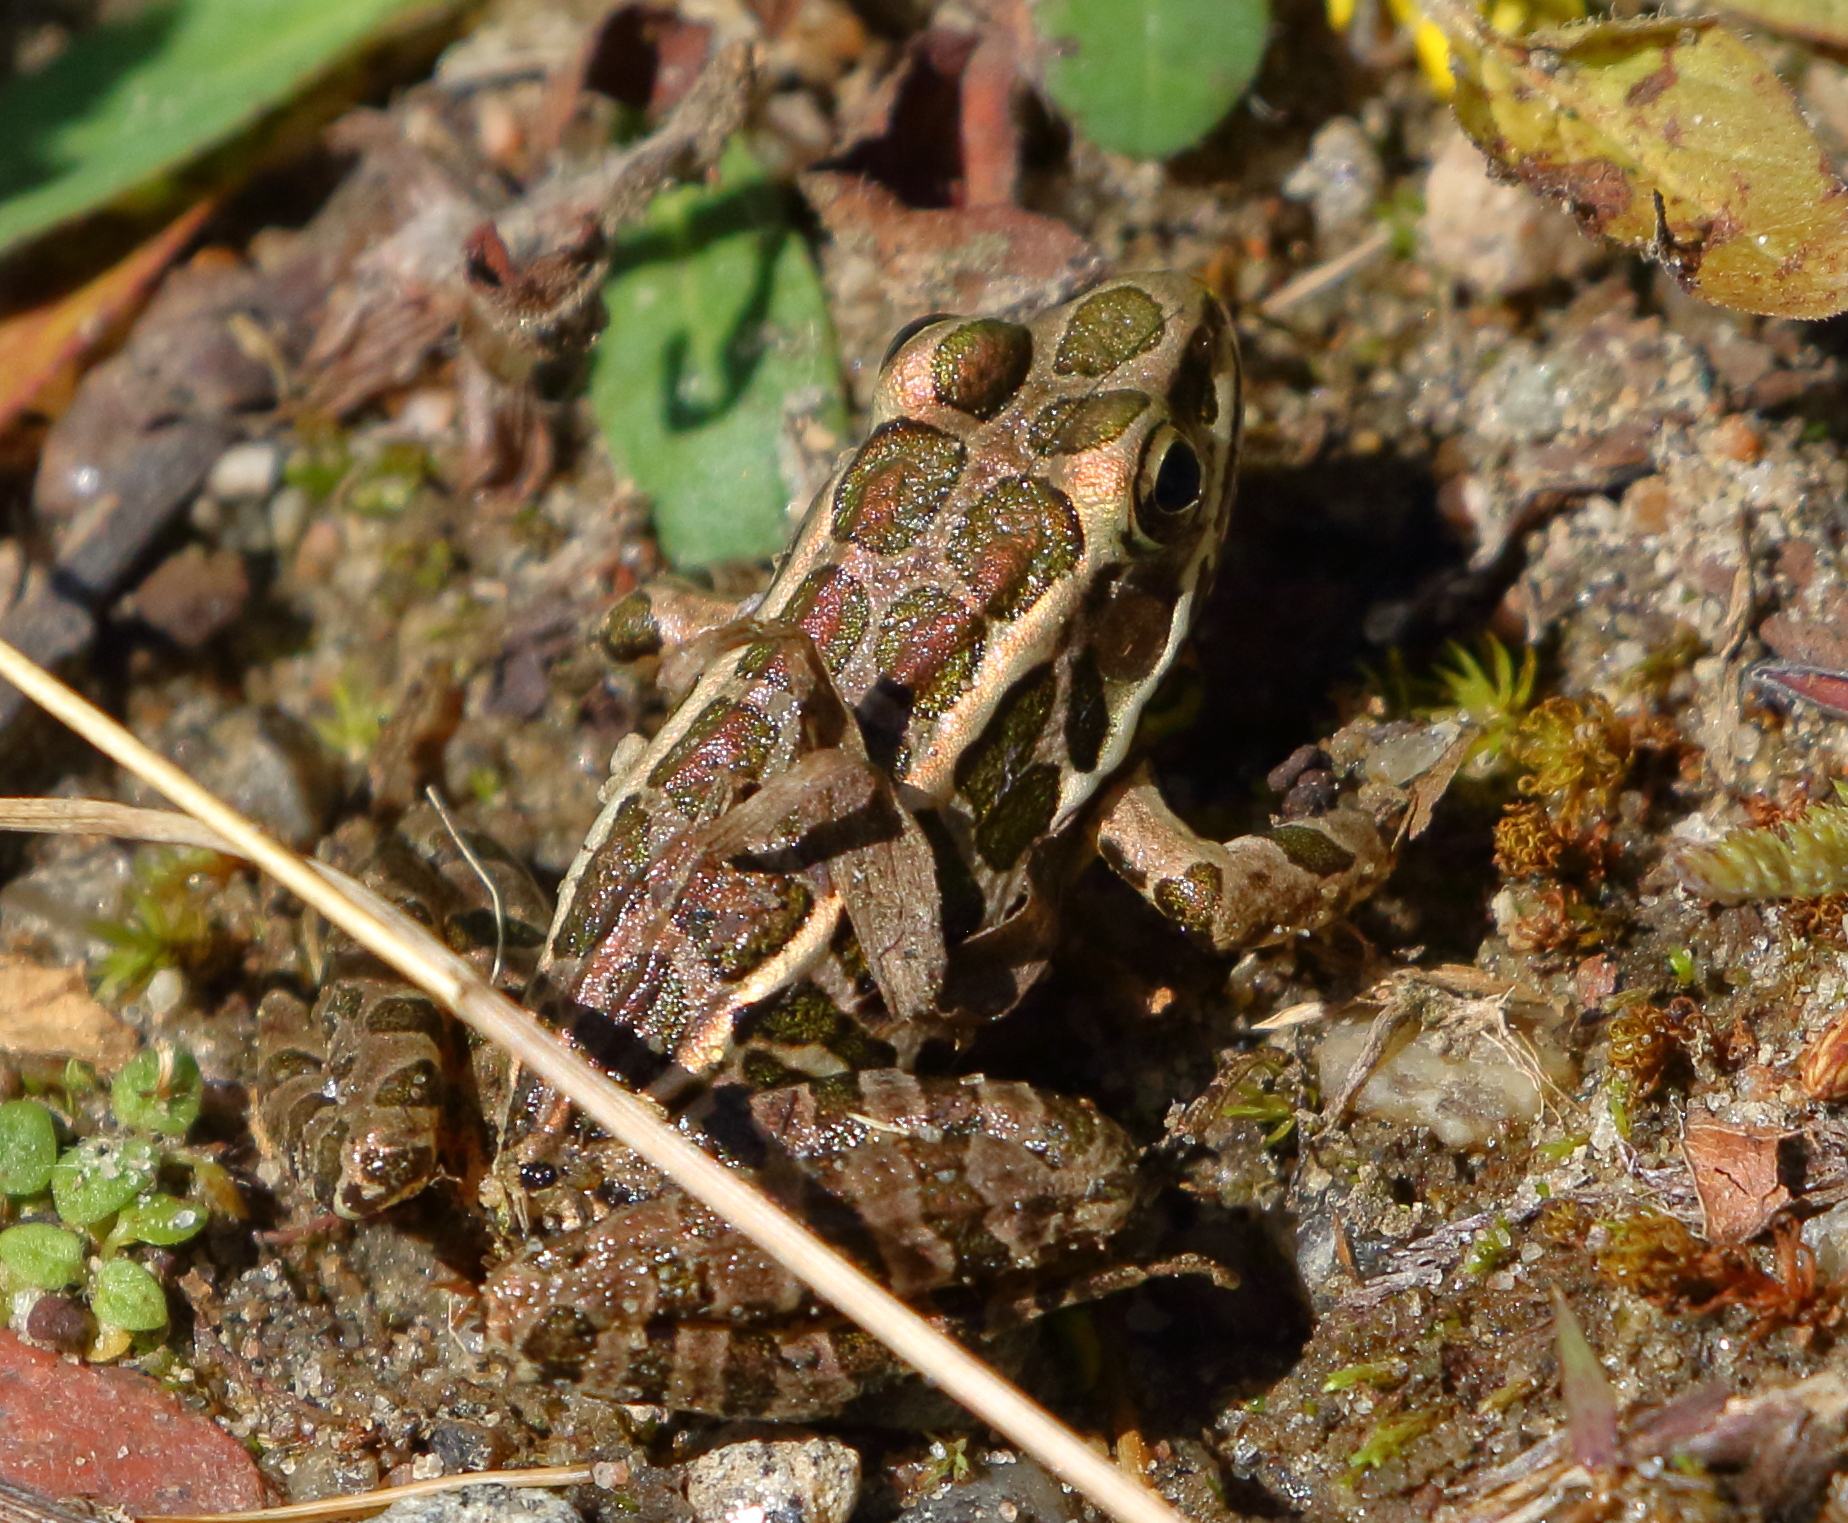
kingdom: Animalia
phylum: Chordata
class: Amphibia
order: Anura
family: Ranidae
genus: Lithobates
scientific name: Lithobates palustris
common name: Pickerel frog
